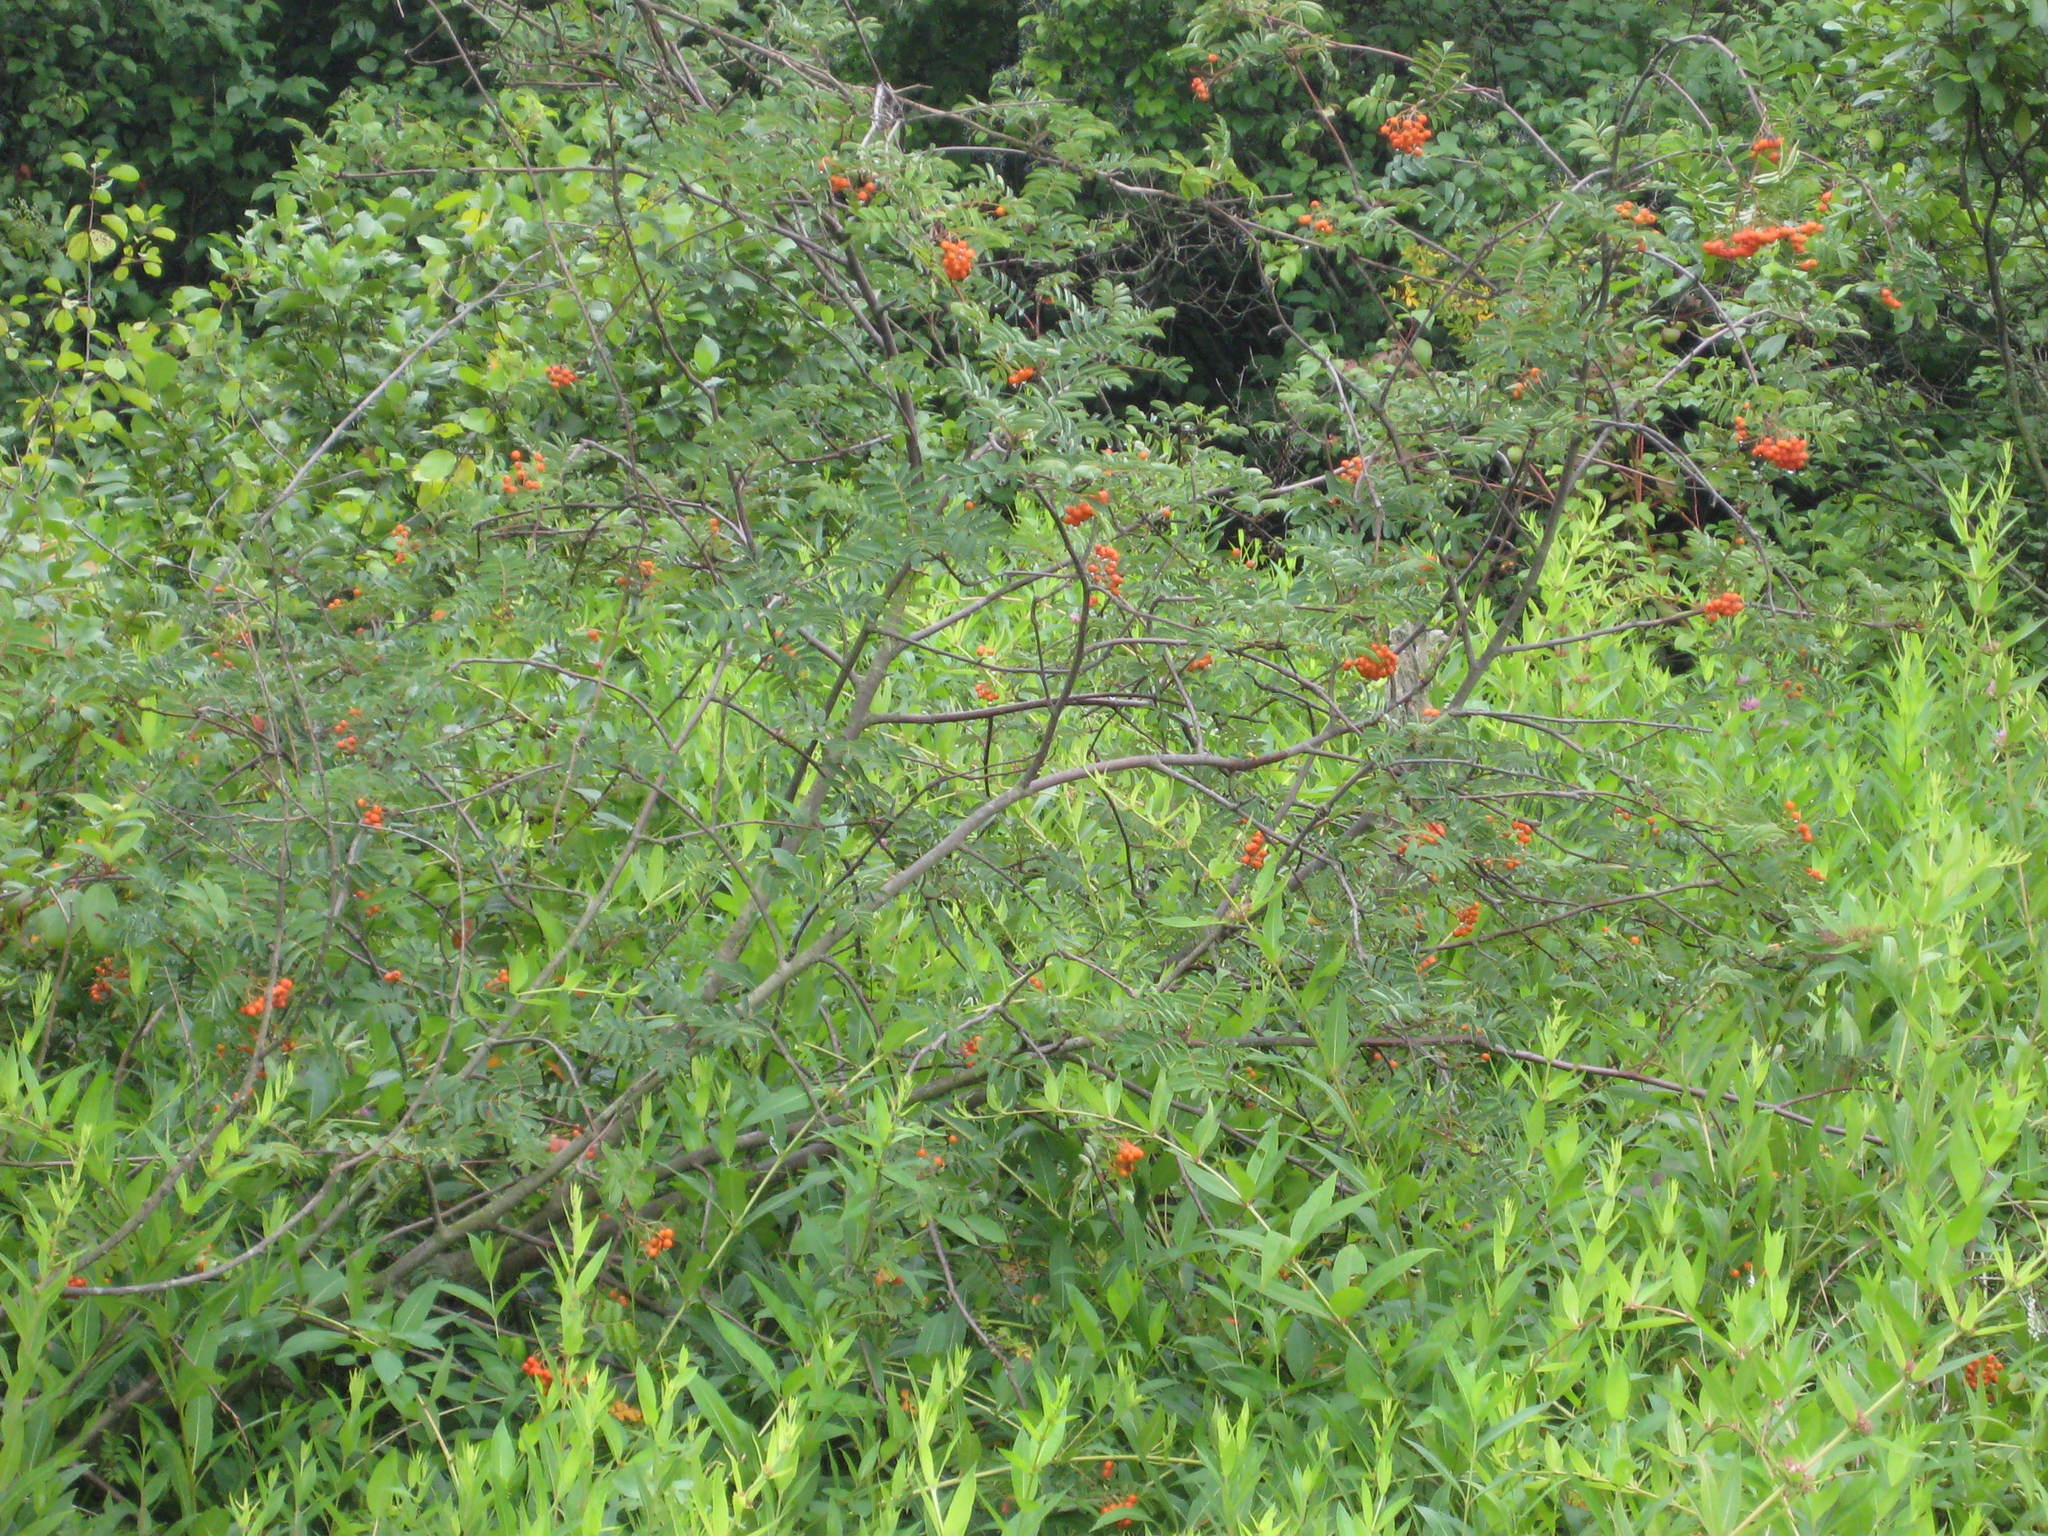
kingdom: Plantae
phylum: Tracheophyta
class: Magnoliopsida
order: Rosales
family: Rosaceae
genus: Sorbus
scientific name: Sorbus aucuparia
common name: Rowan
